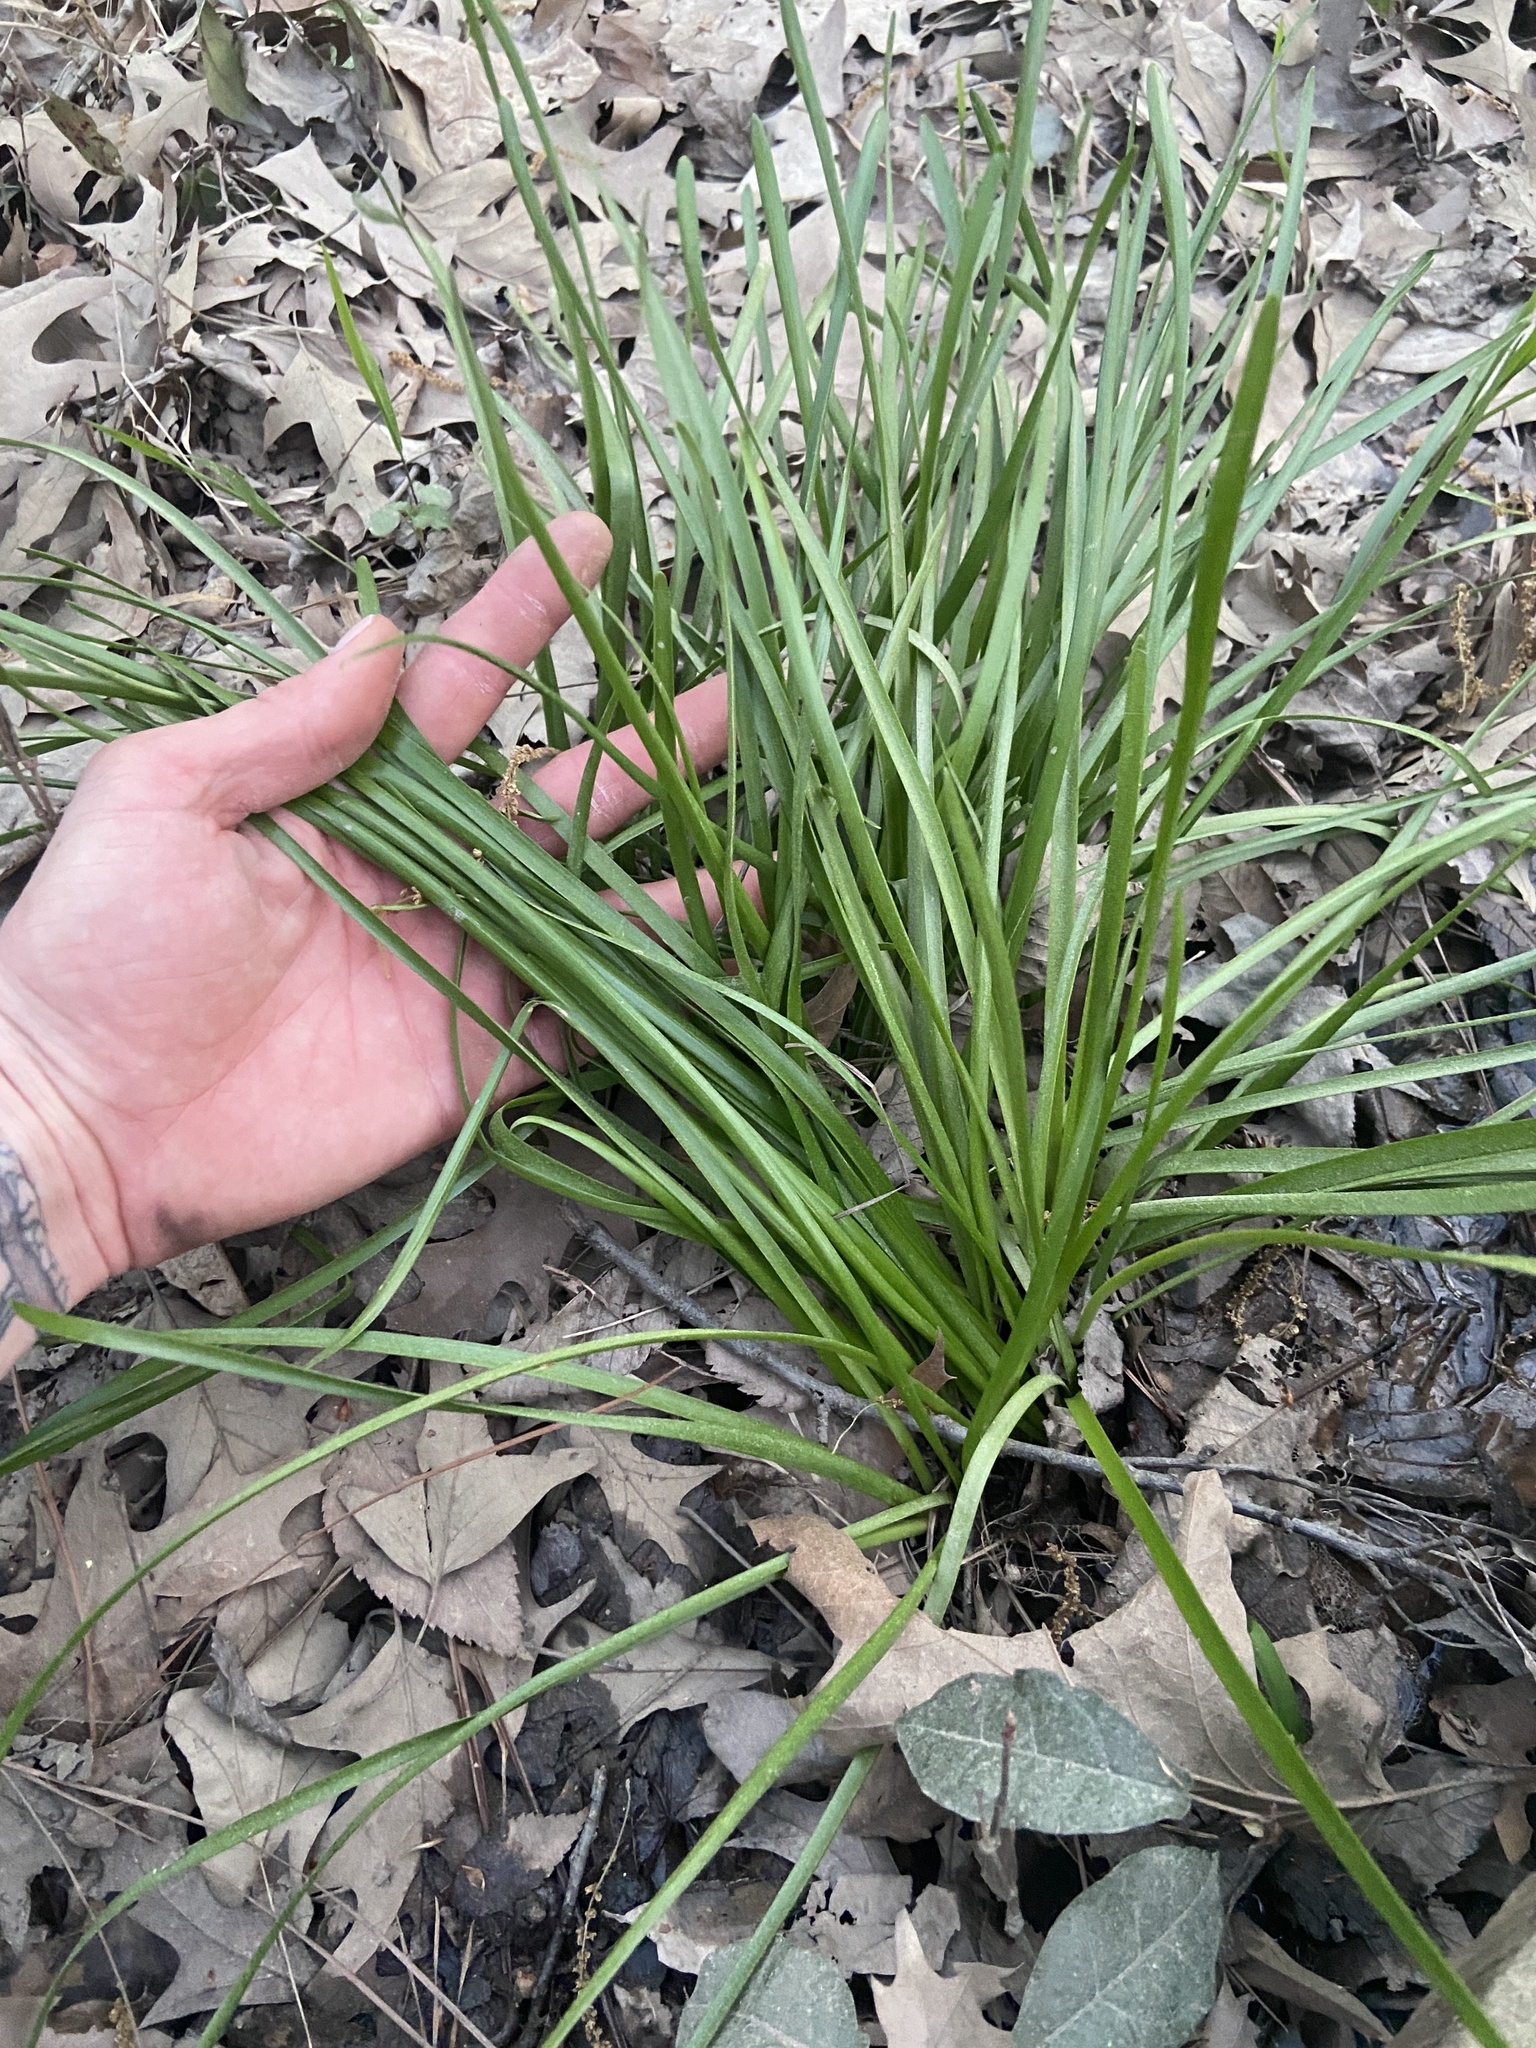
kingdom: Plantae
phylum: Tracheophyta
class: Liliopsida
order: Asparagales
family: Amaryllidaceae
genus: Zephyranthes
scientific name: Zephyranthes atamasco
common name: Atamasco lily
